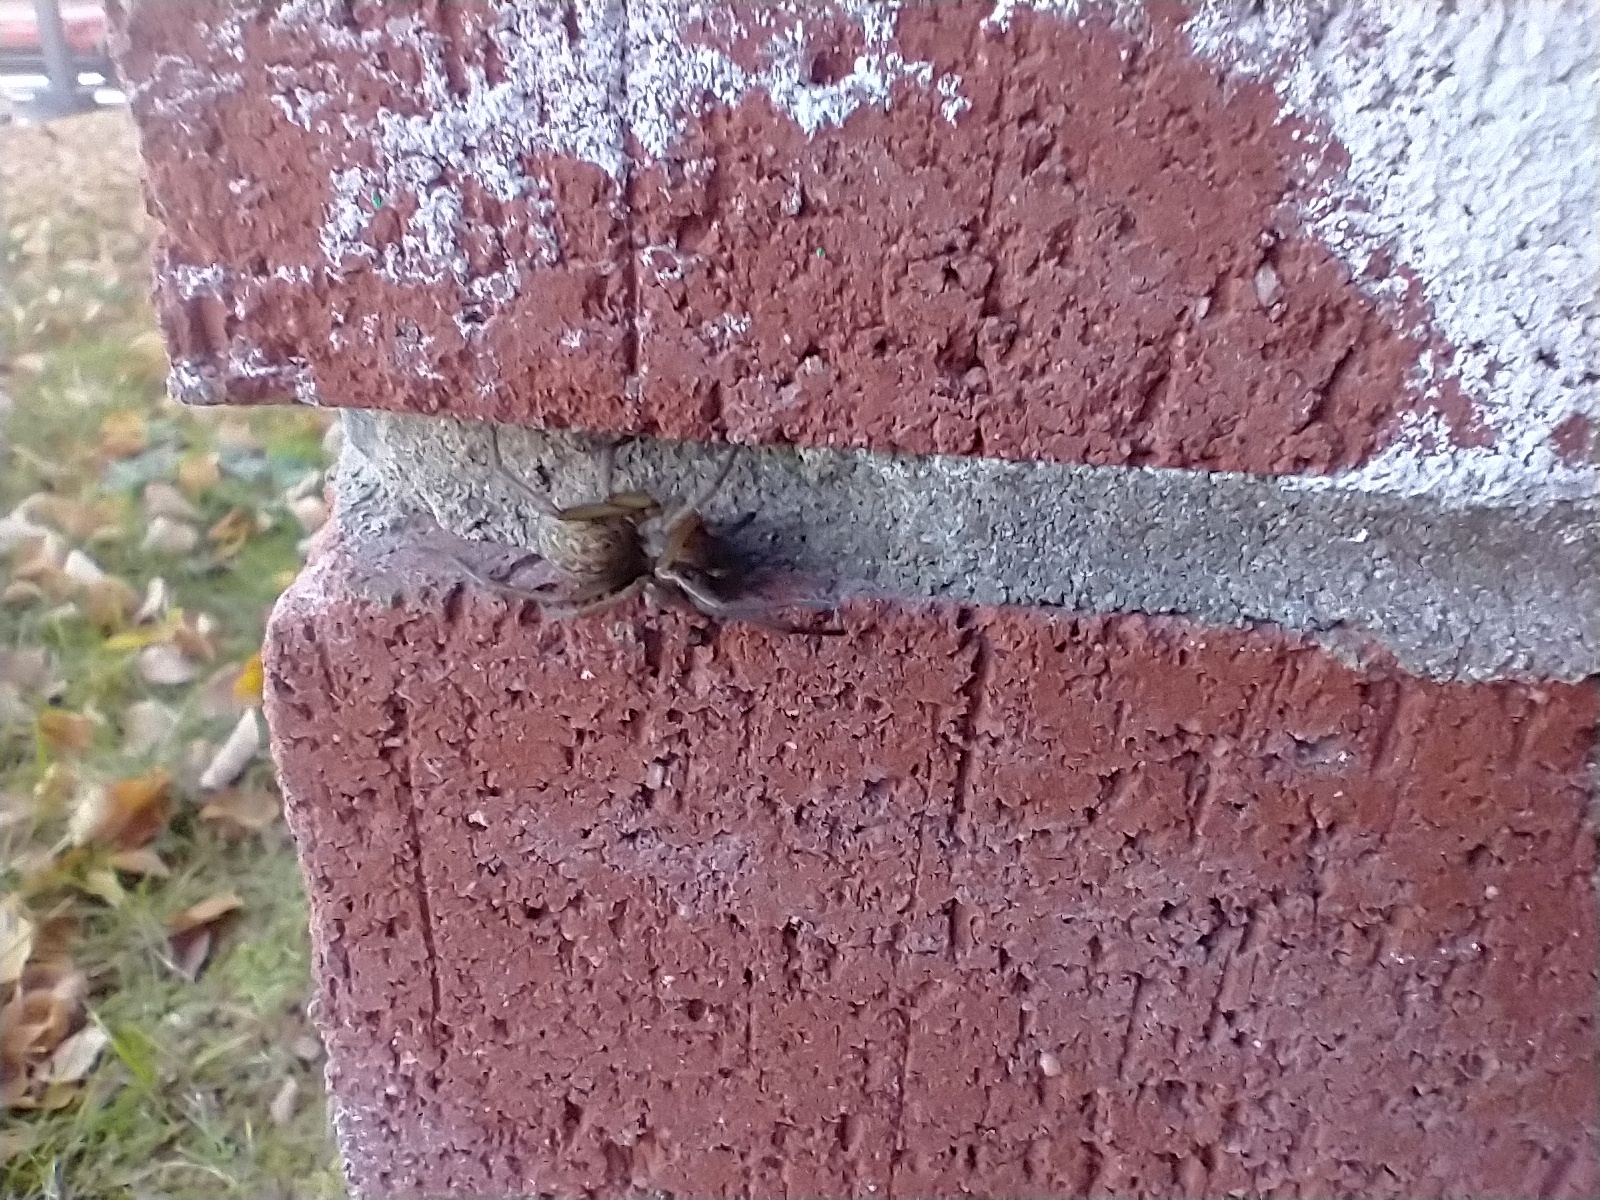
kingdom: Animalia
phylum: Arthropoda
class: Arachnida
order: Araneae
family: Agelenidae
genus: Eratigena
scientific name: Eratigena agrestis
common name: Hobo spider
